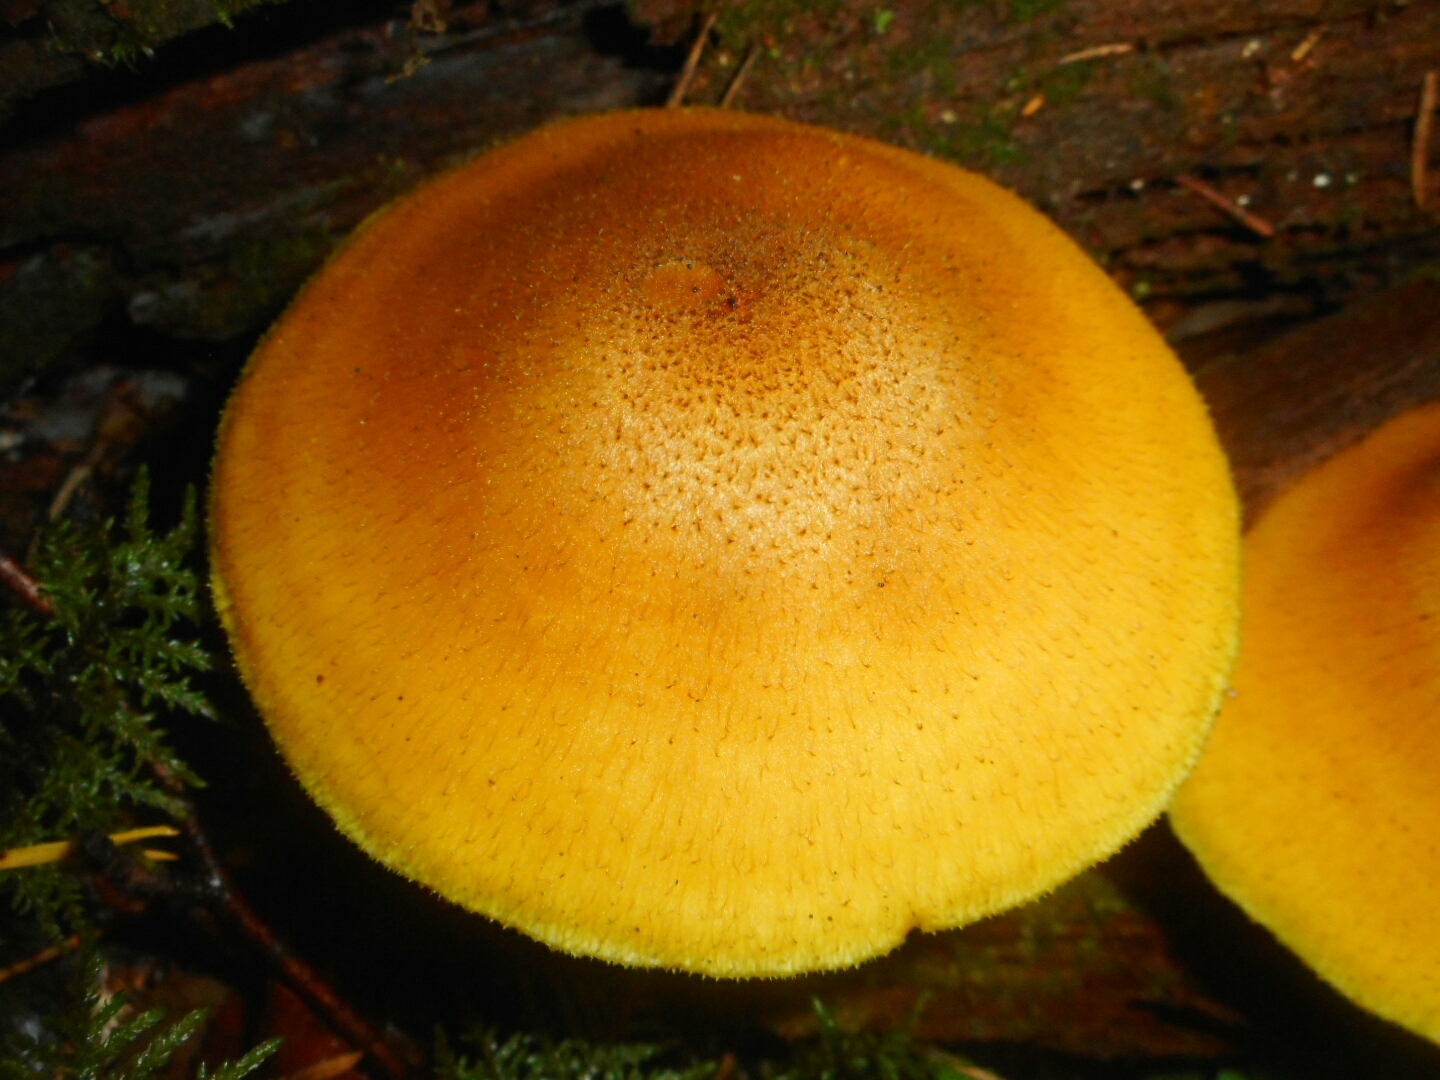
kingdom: Fungi
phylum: Basidiomycota
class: Agaricomycetes
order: Agaricales
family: Tricholomataceae
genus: Tricholomopsis
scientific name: Tricholomopsis decora
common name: Prunes and custard
